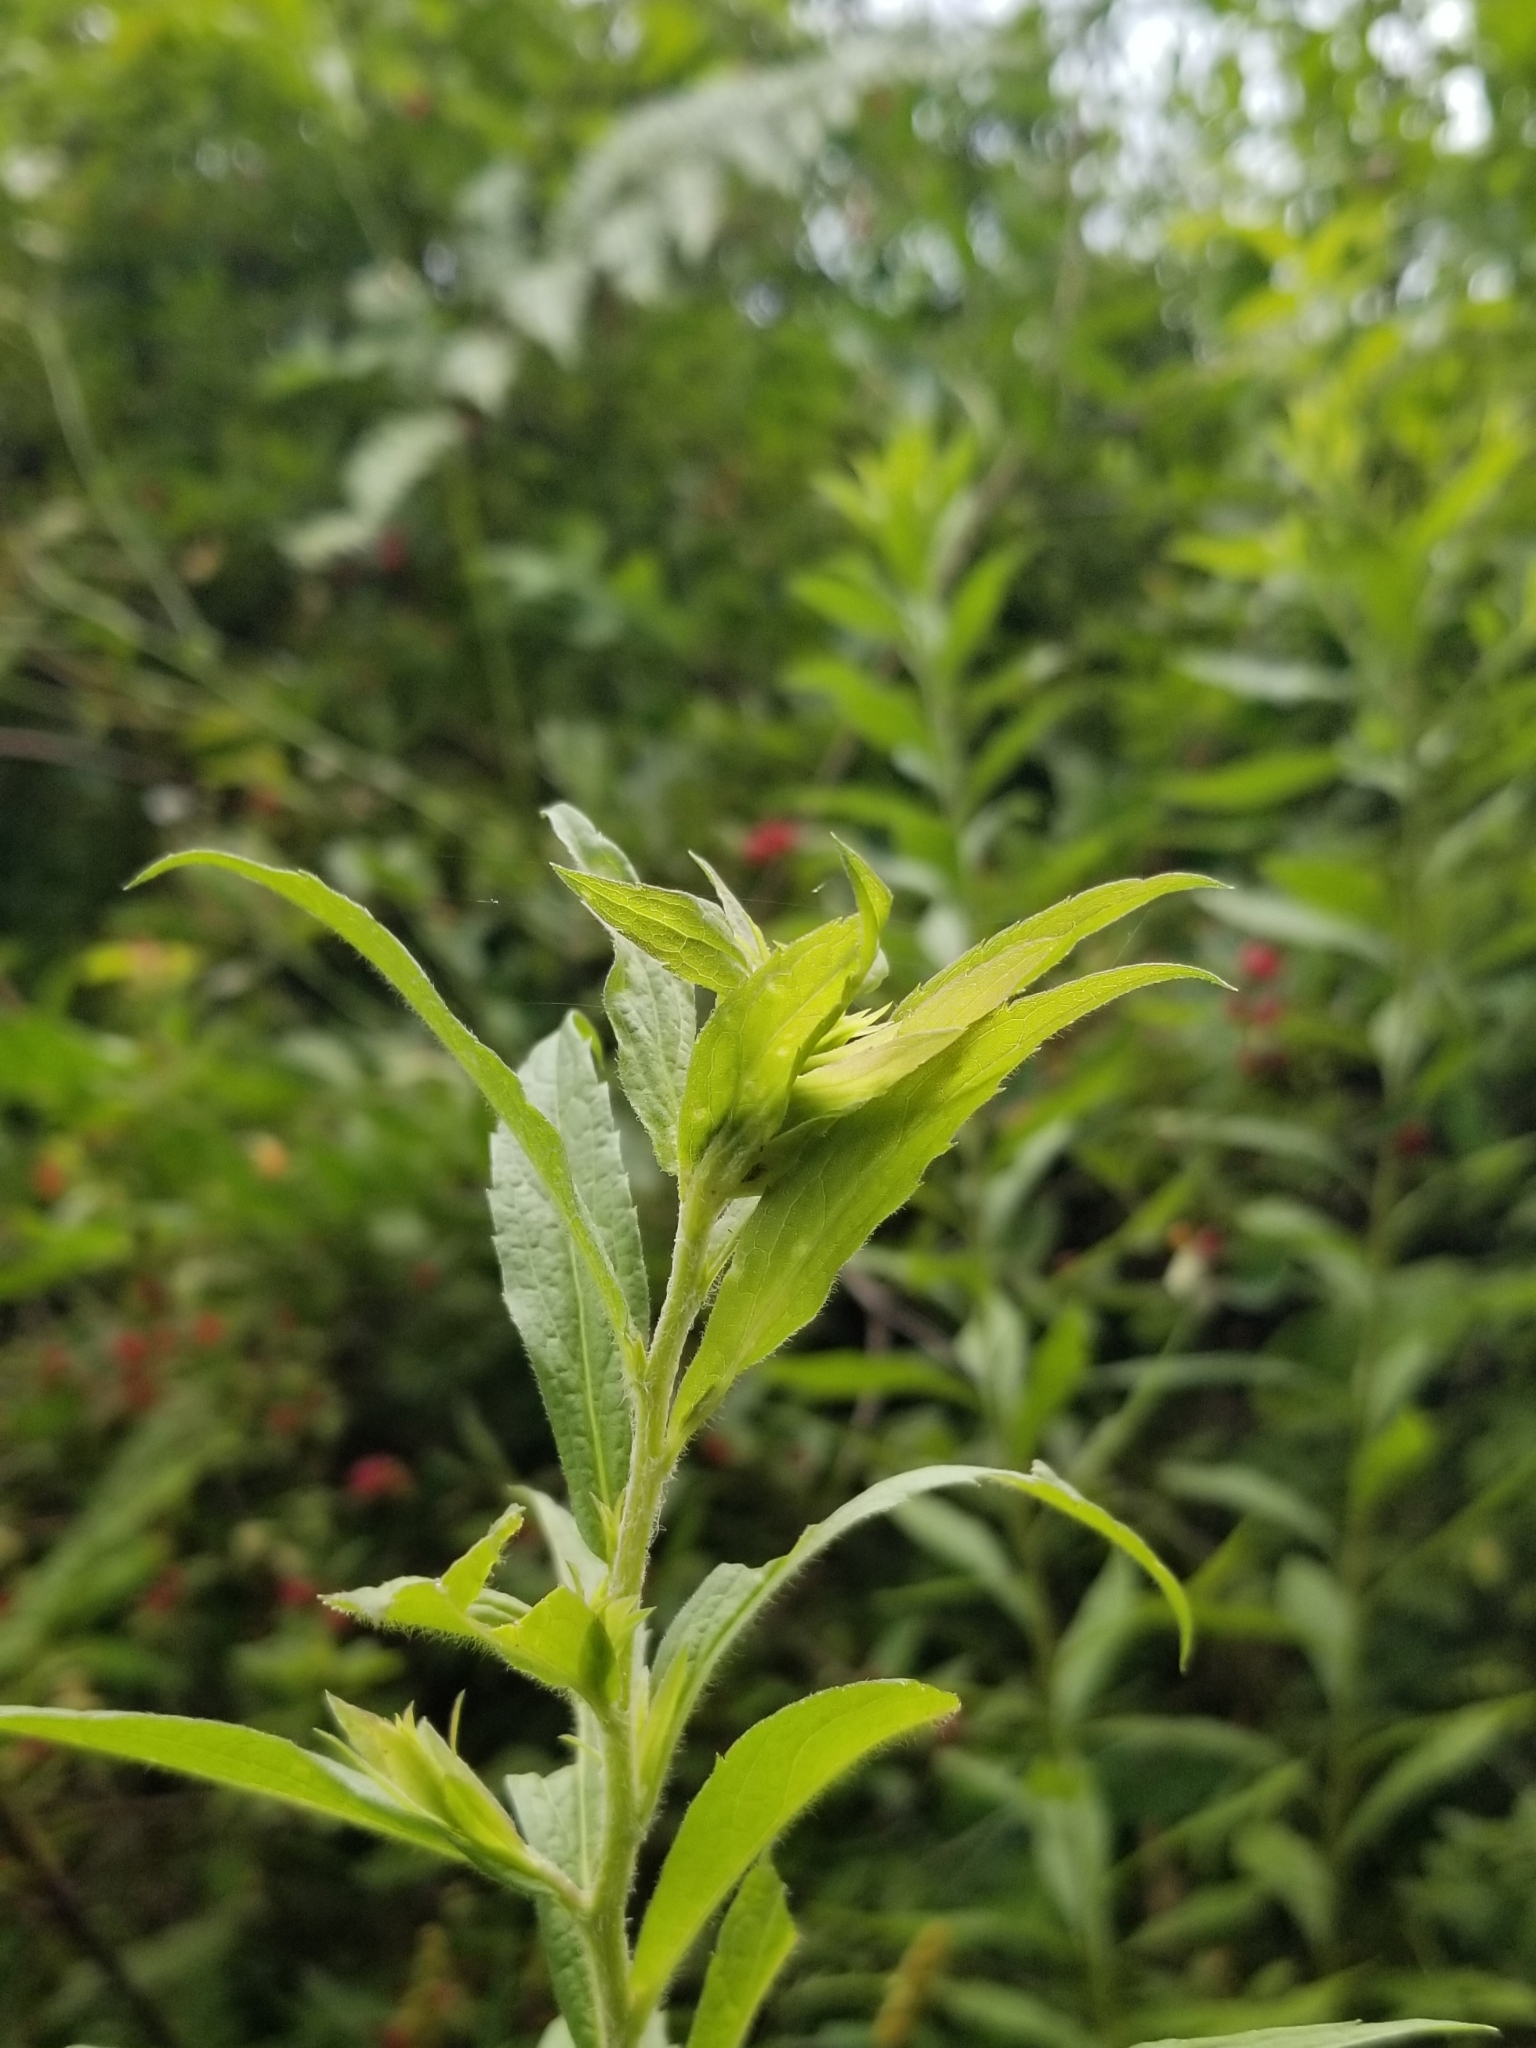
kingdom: Animalia
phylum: Arthropoda
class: Insecta
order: Diptera
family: Cecidomyiidae
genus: Dasineura
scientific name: Dasineura folliculi
